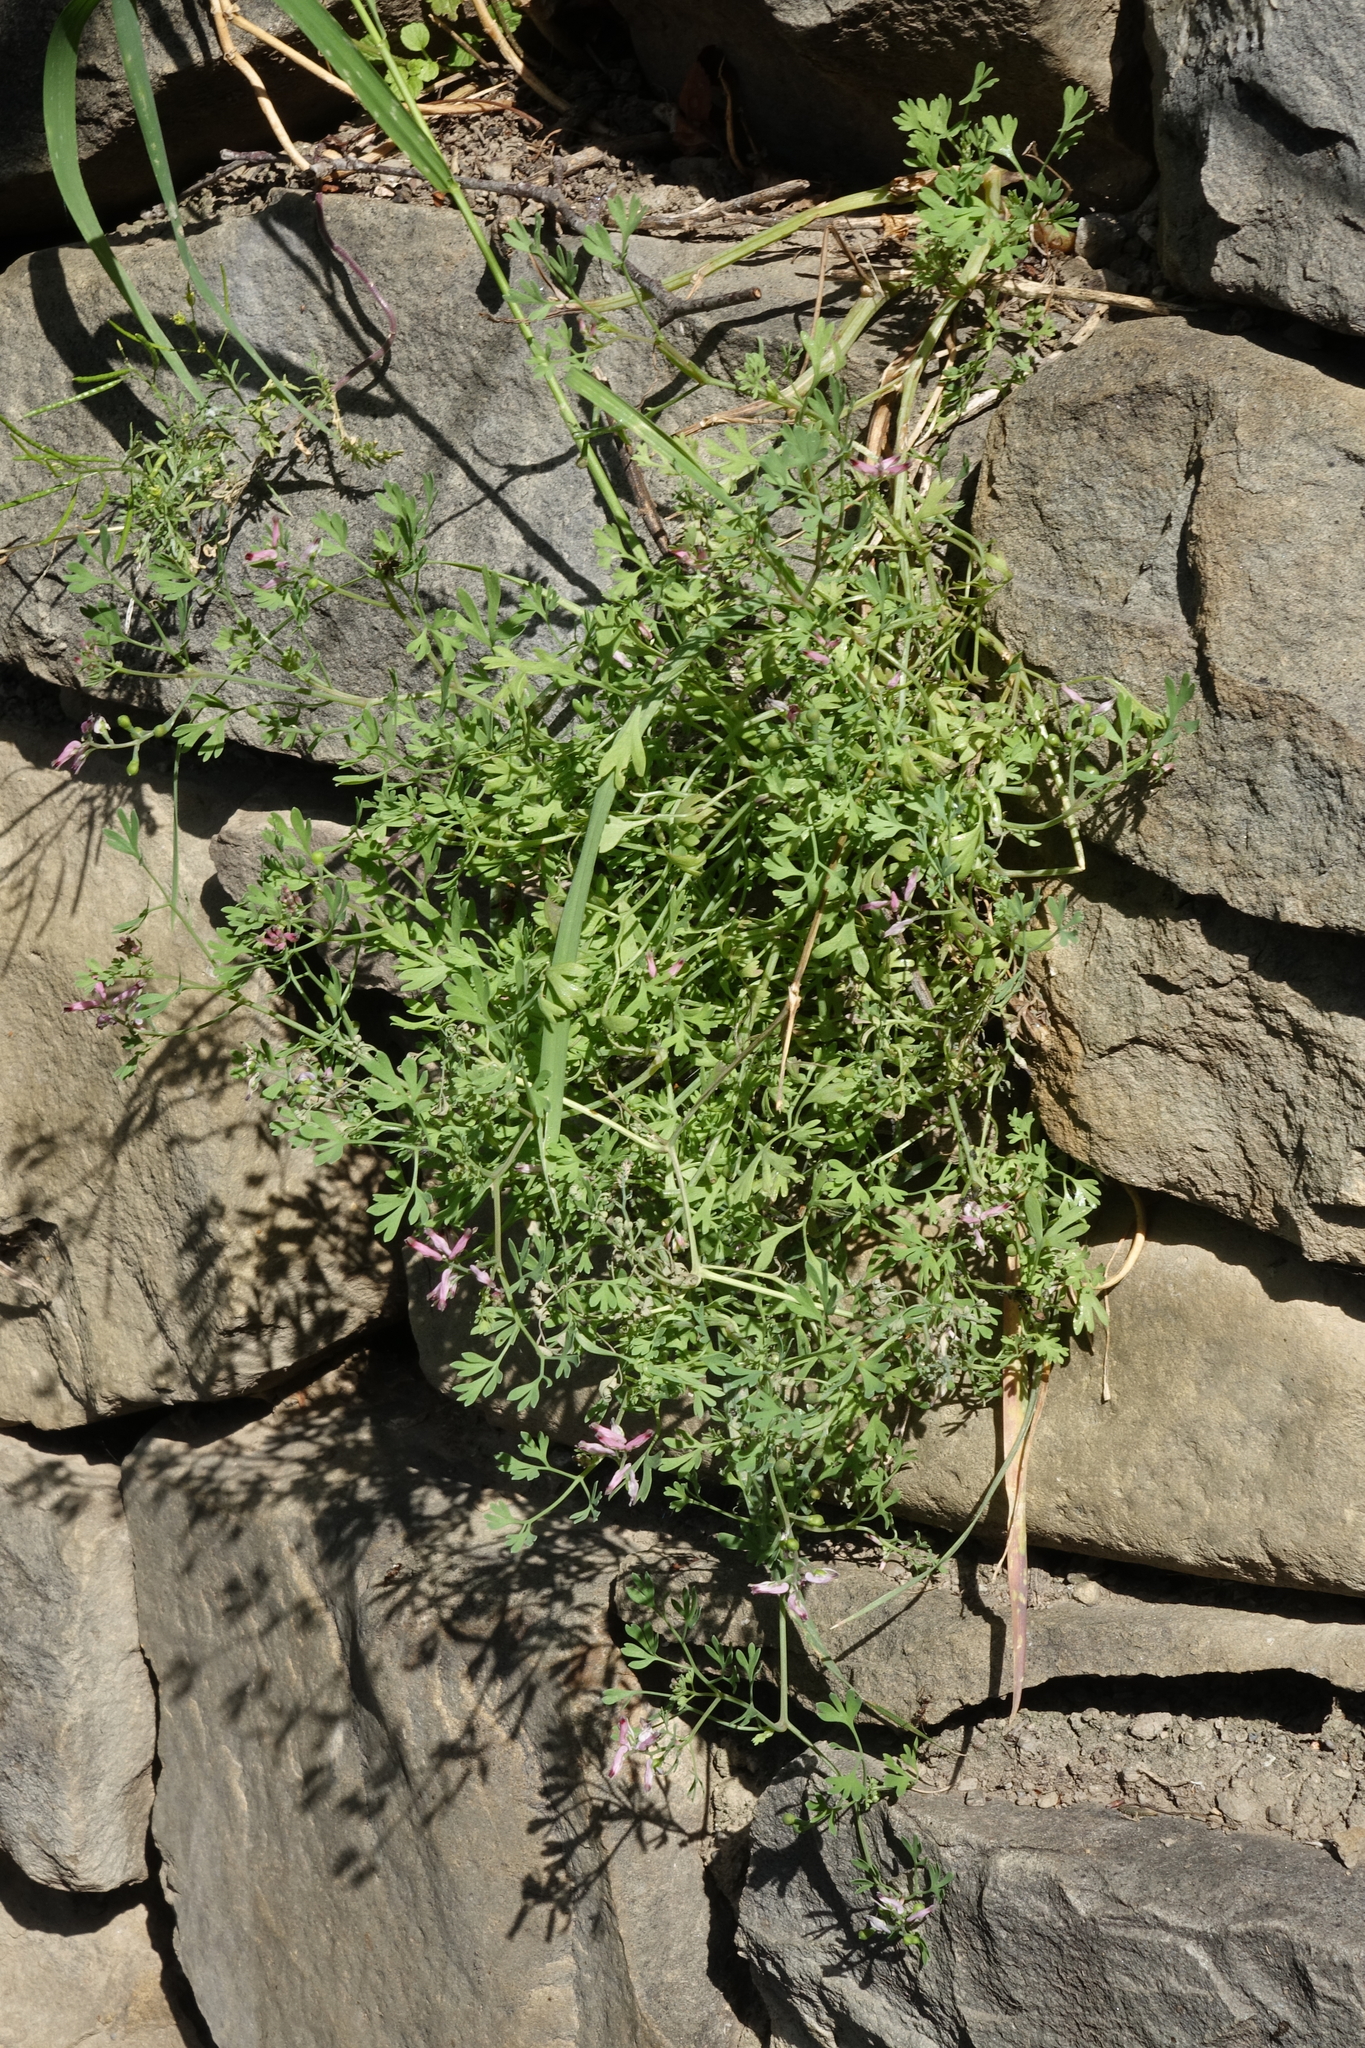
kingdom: Plantae
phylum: Tracheophyta
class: Magnoliopsida
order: Ranunculales
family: Papaveraceae
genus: Fumaria
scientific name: Fumaria schleicheri
